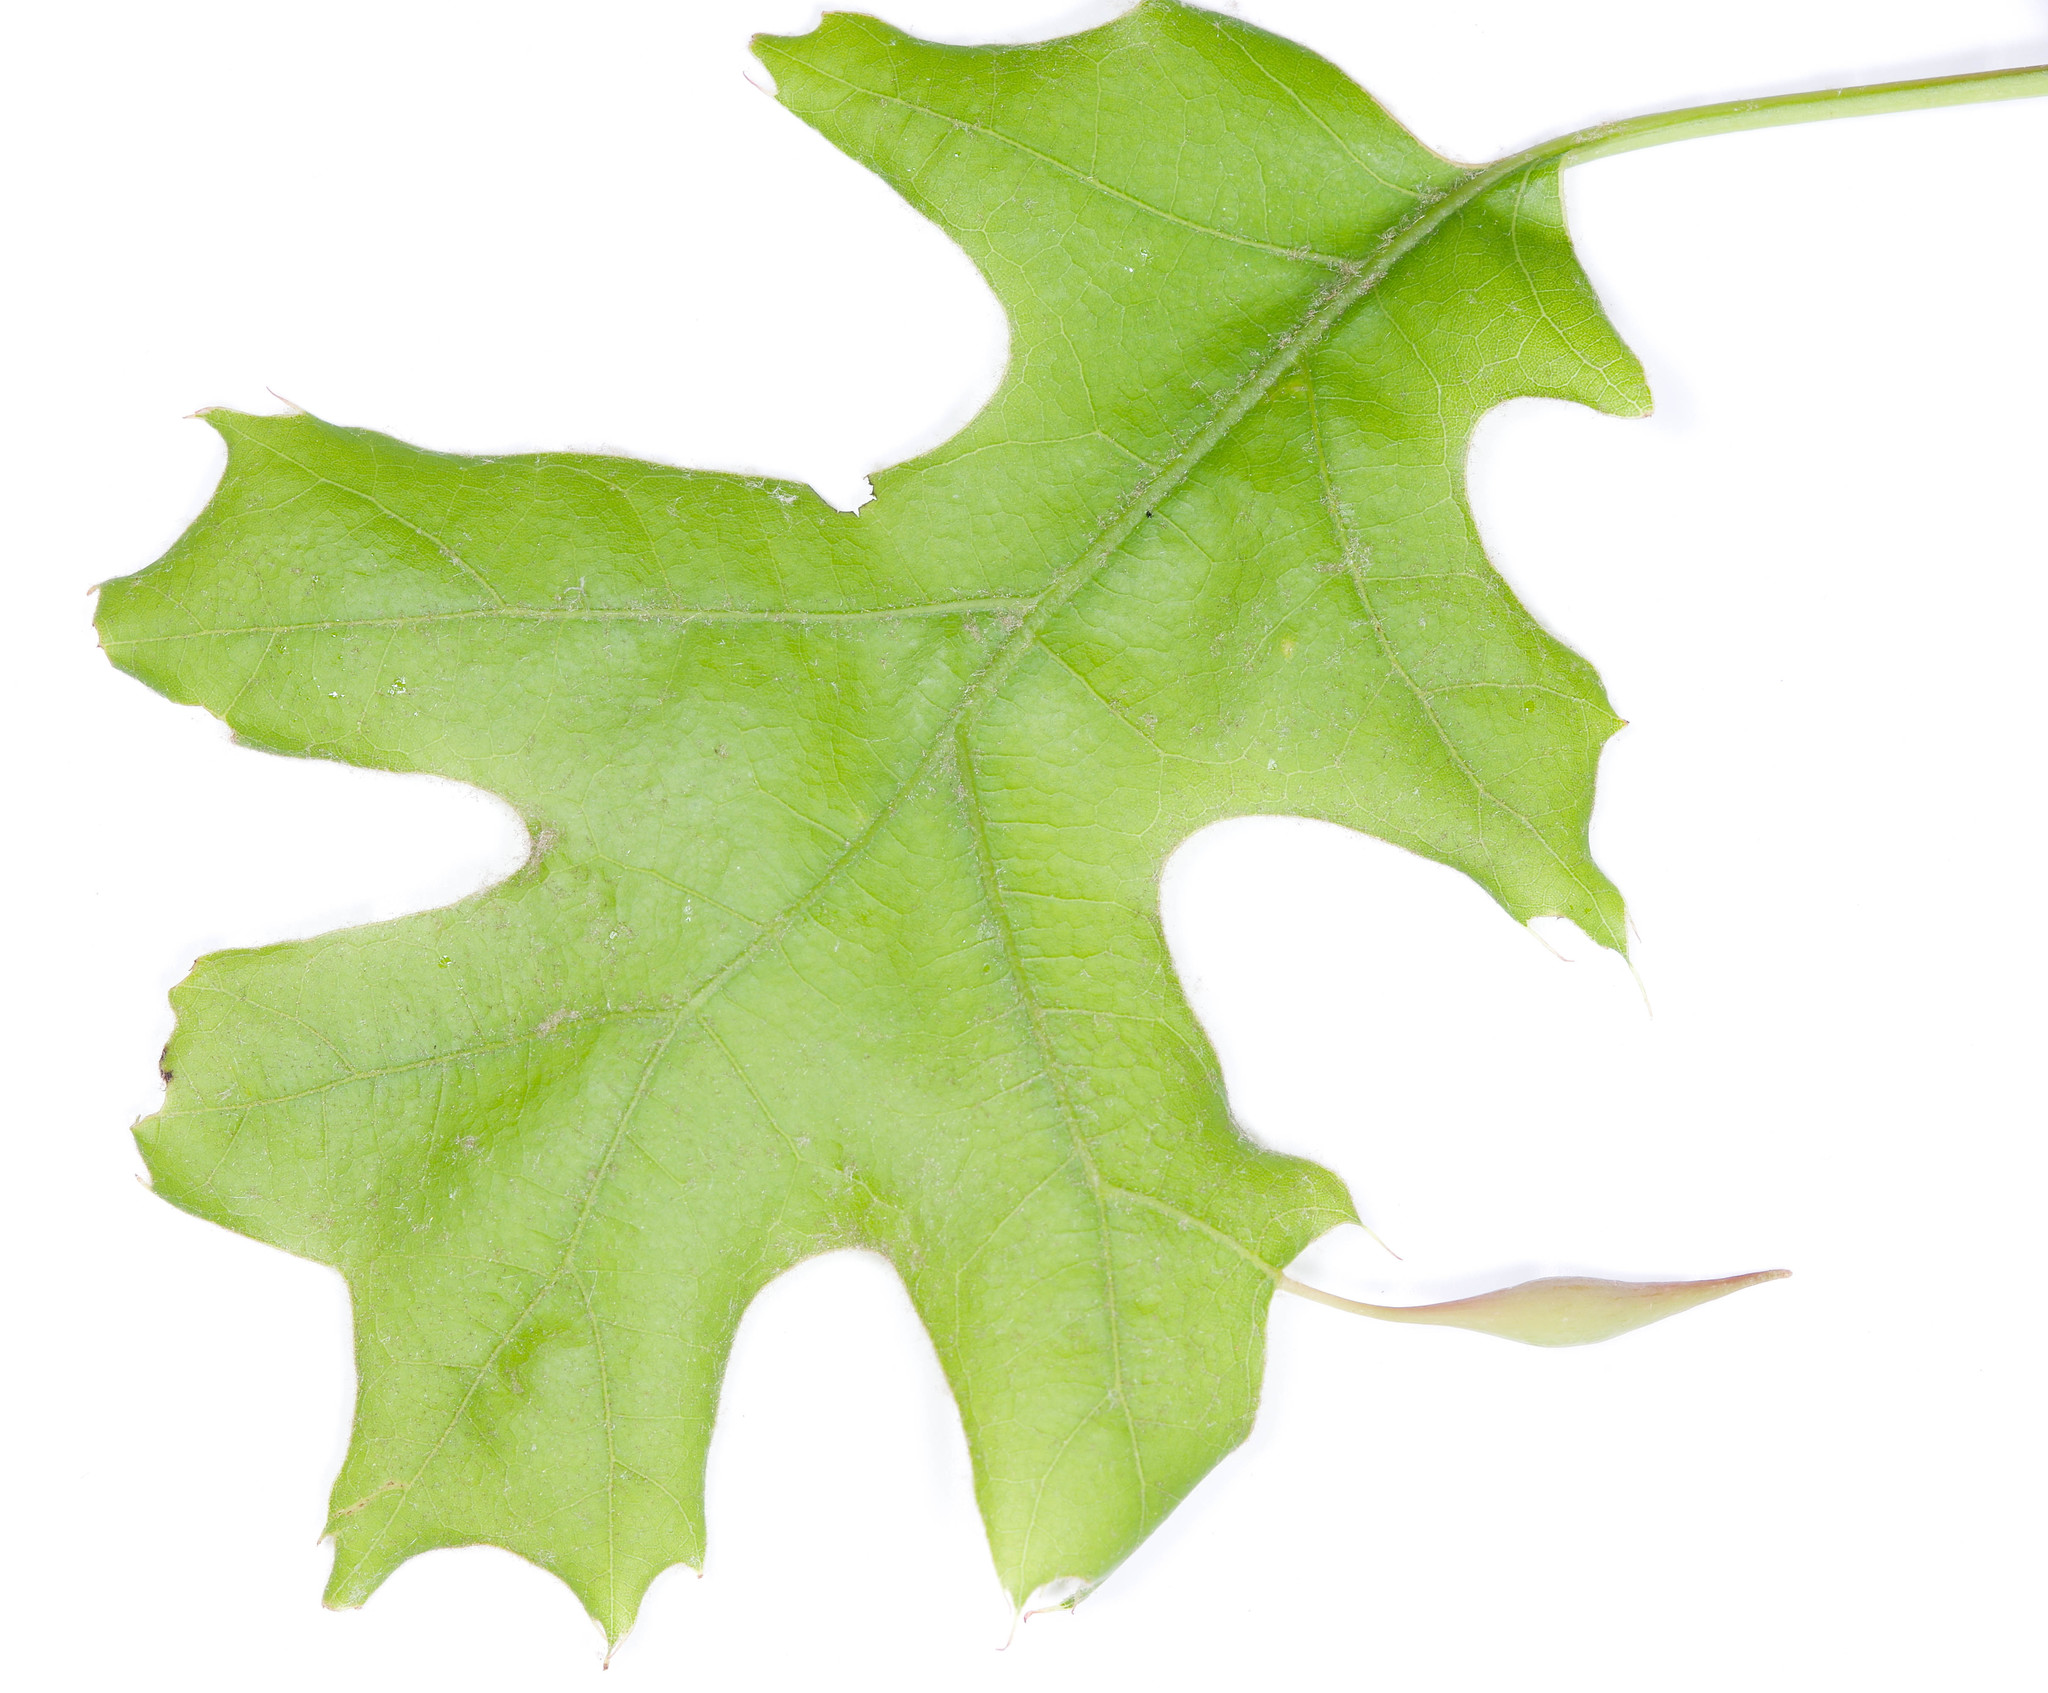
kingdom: Animalia
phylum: Arthropoda
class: Insecta
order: Hymenoptera
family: Cynipidae
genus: Amphibolips
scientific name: Amphibolips
